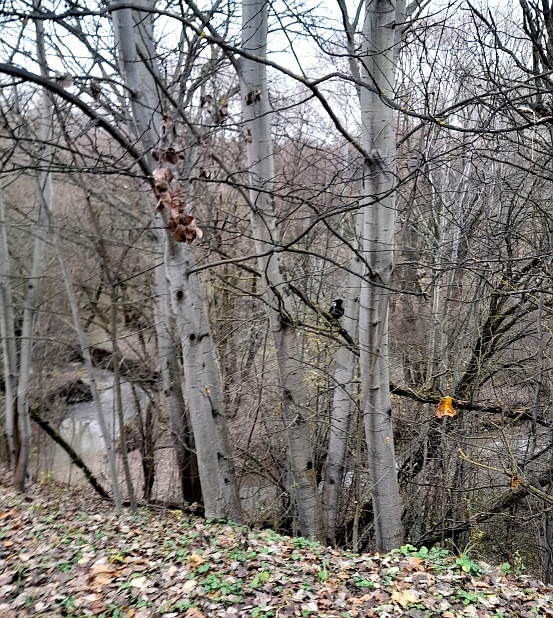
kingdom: Plantae
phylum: Tracheophyta
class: Magnoliopsida
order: Malpighiales
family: Salicaceae
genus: Populus
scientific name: Populus tremula
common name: European aspen
